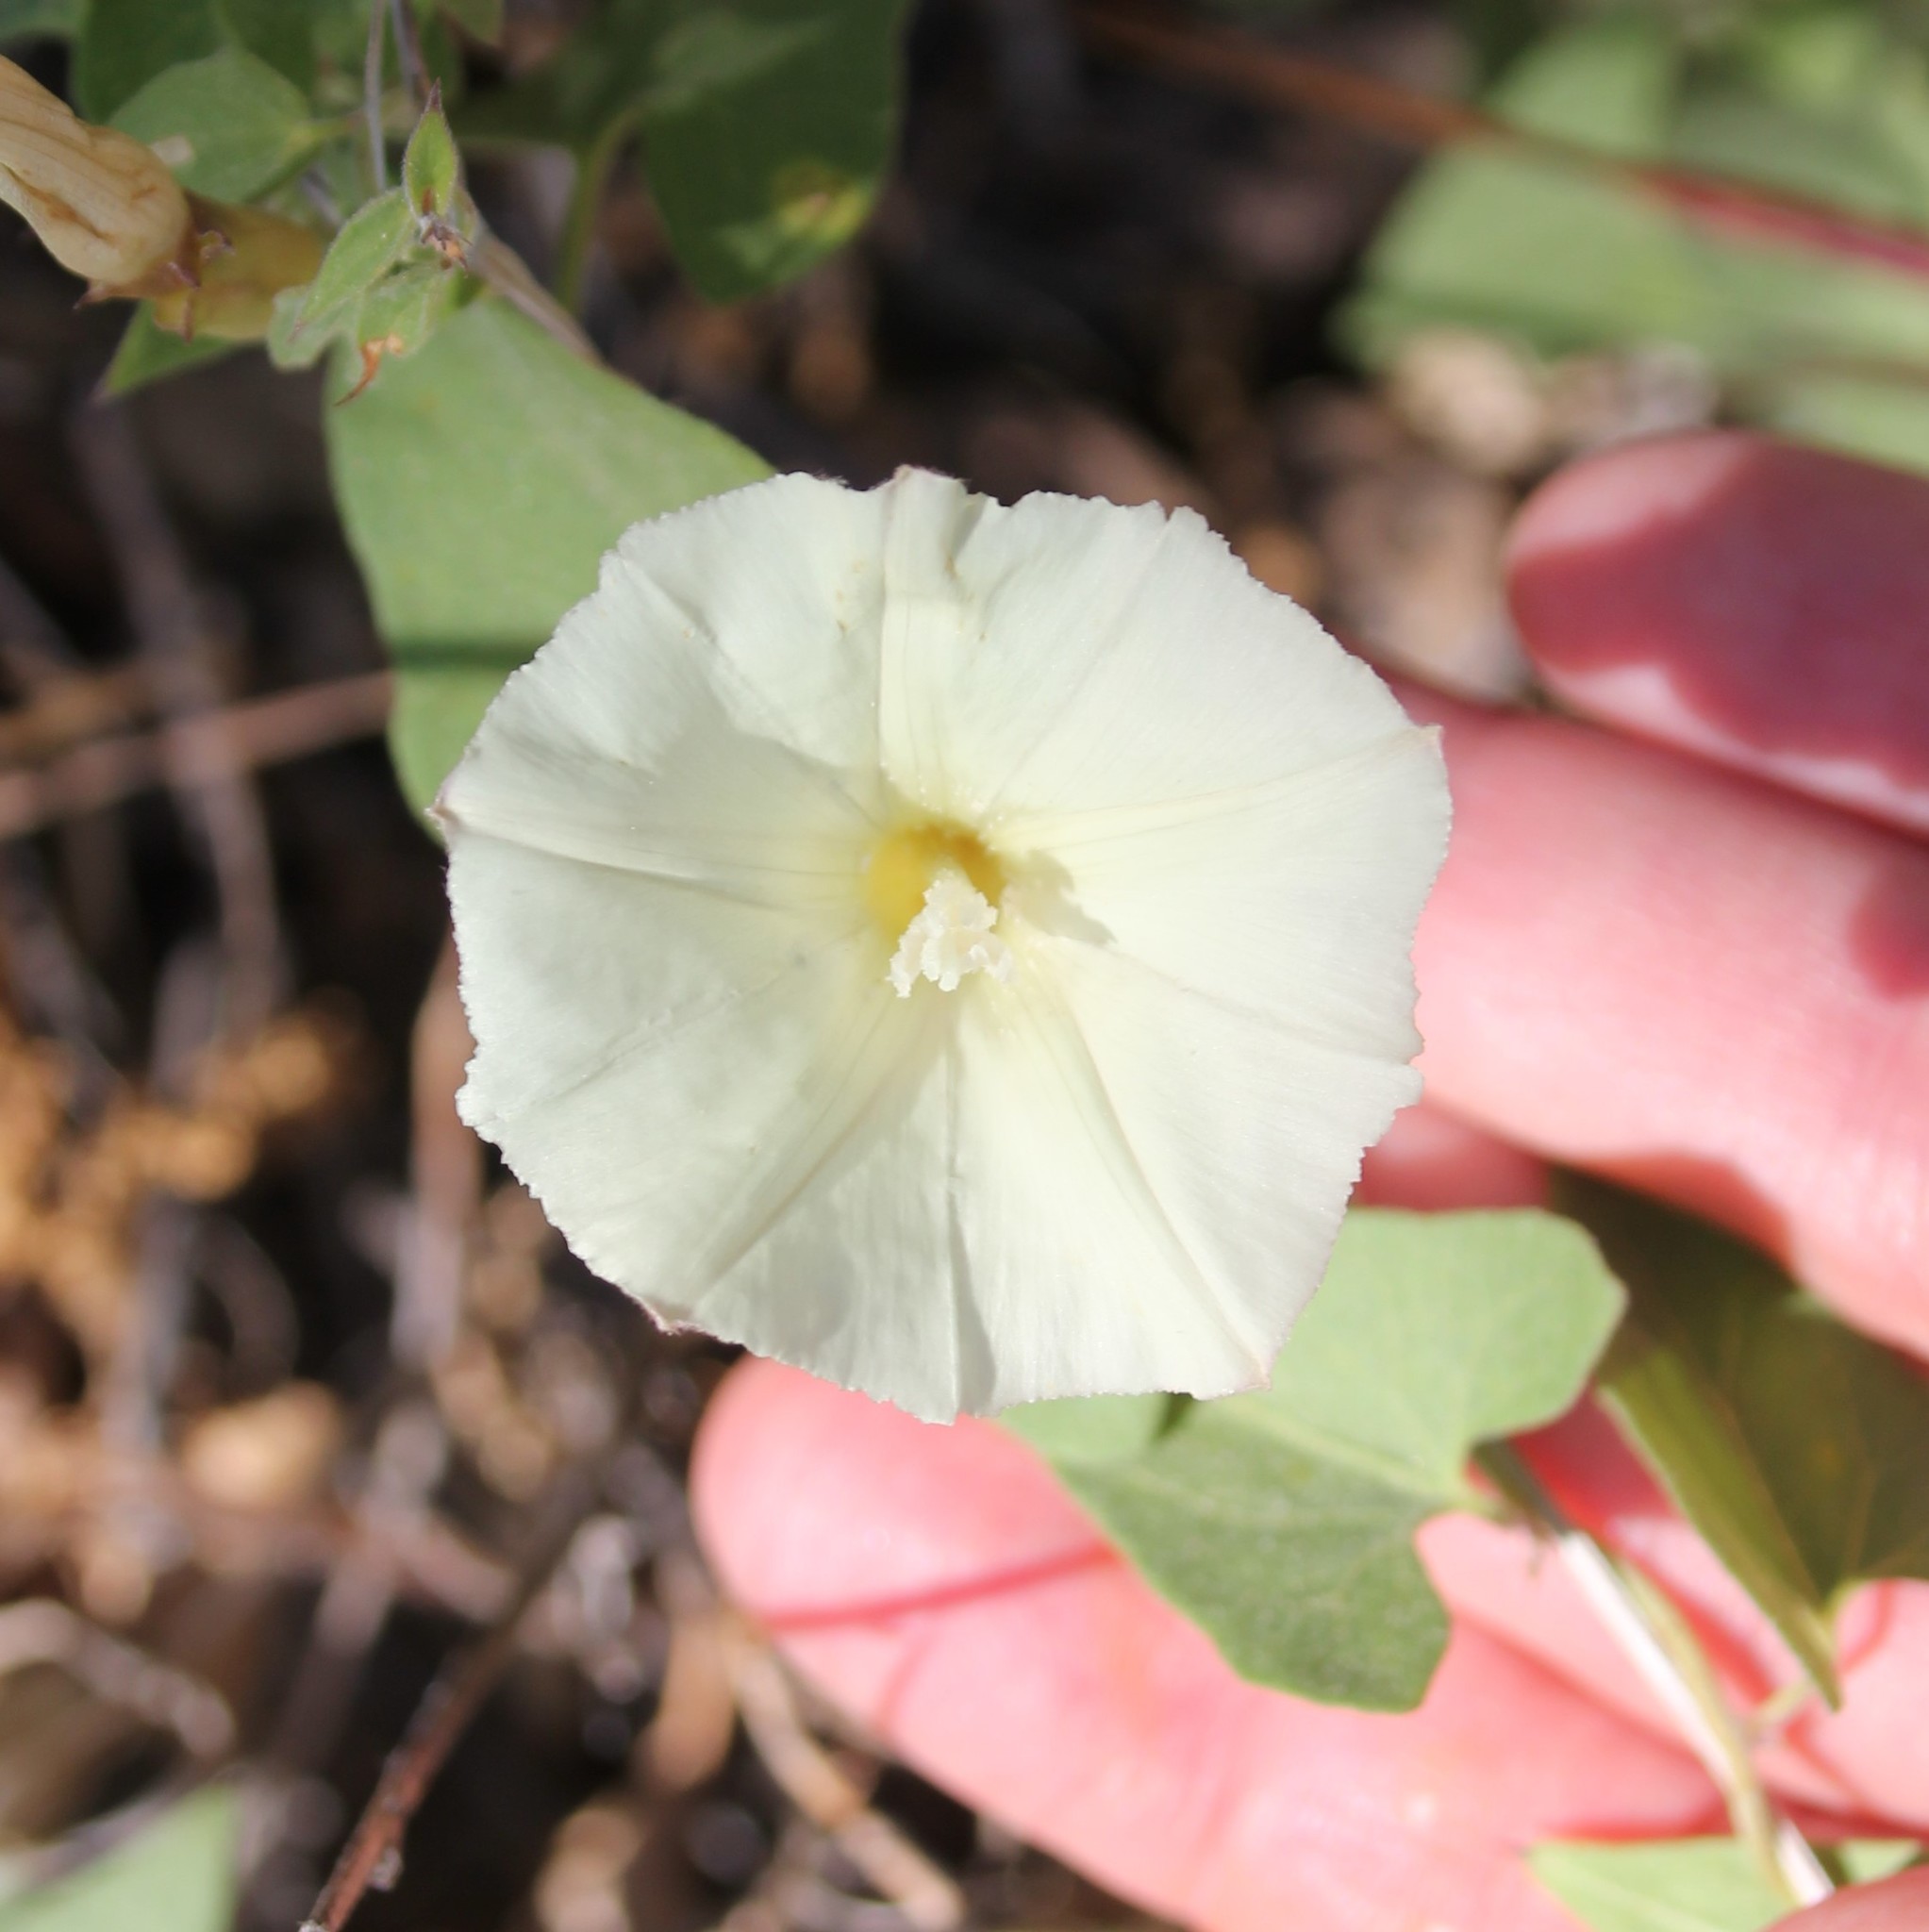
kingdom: Plantae
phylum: Tracheophyta
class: Magnoliopsida
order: Solanales
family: Convolvulaceae
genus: Calystegia
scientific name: Calystegia occidentalis
